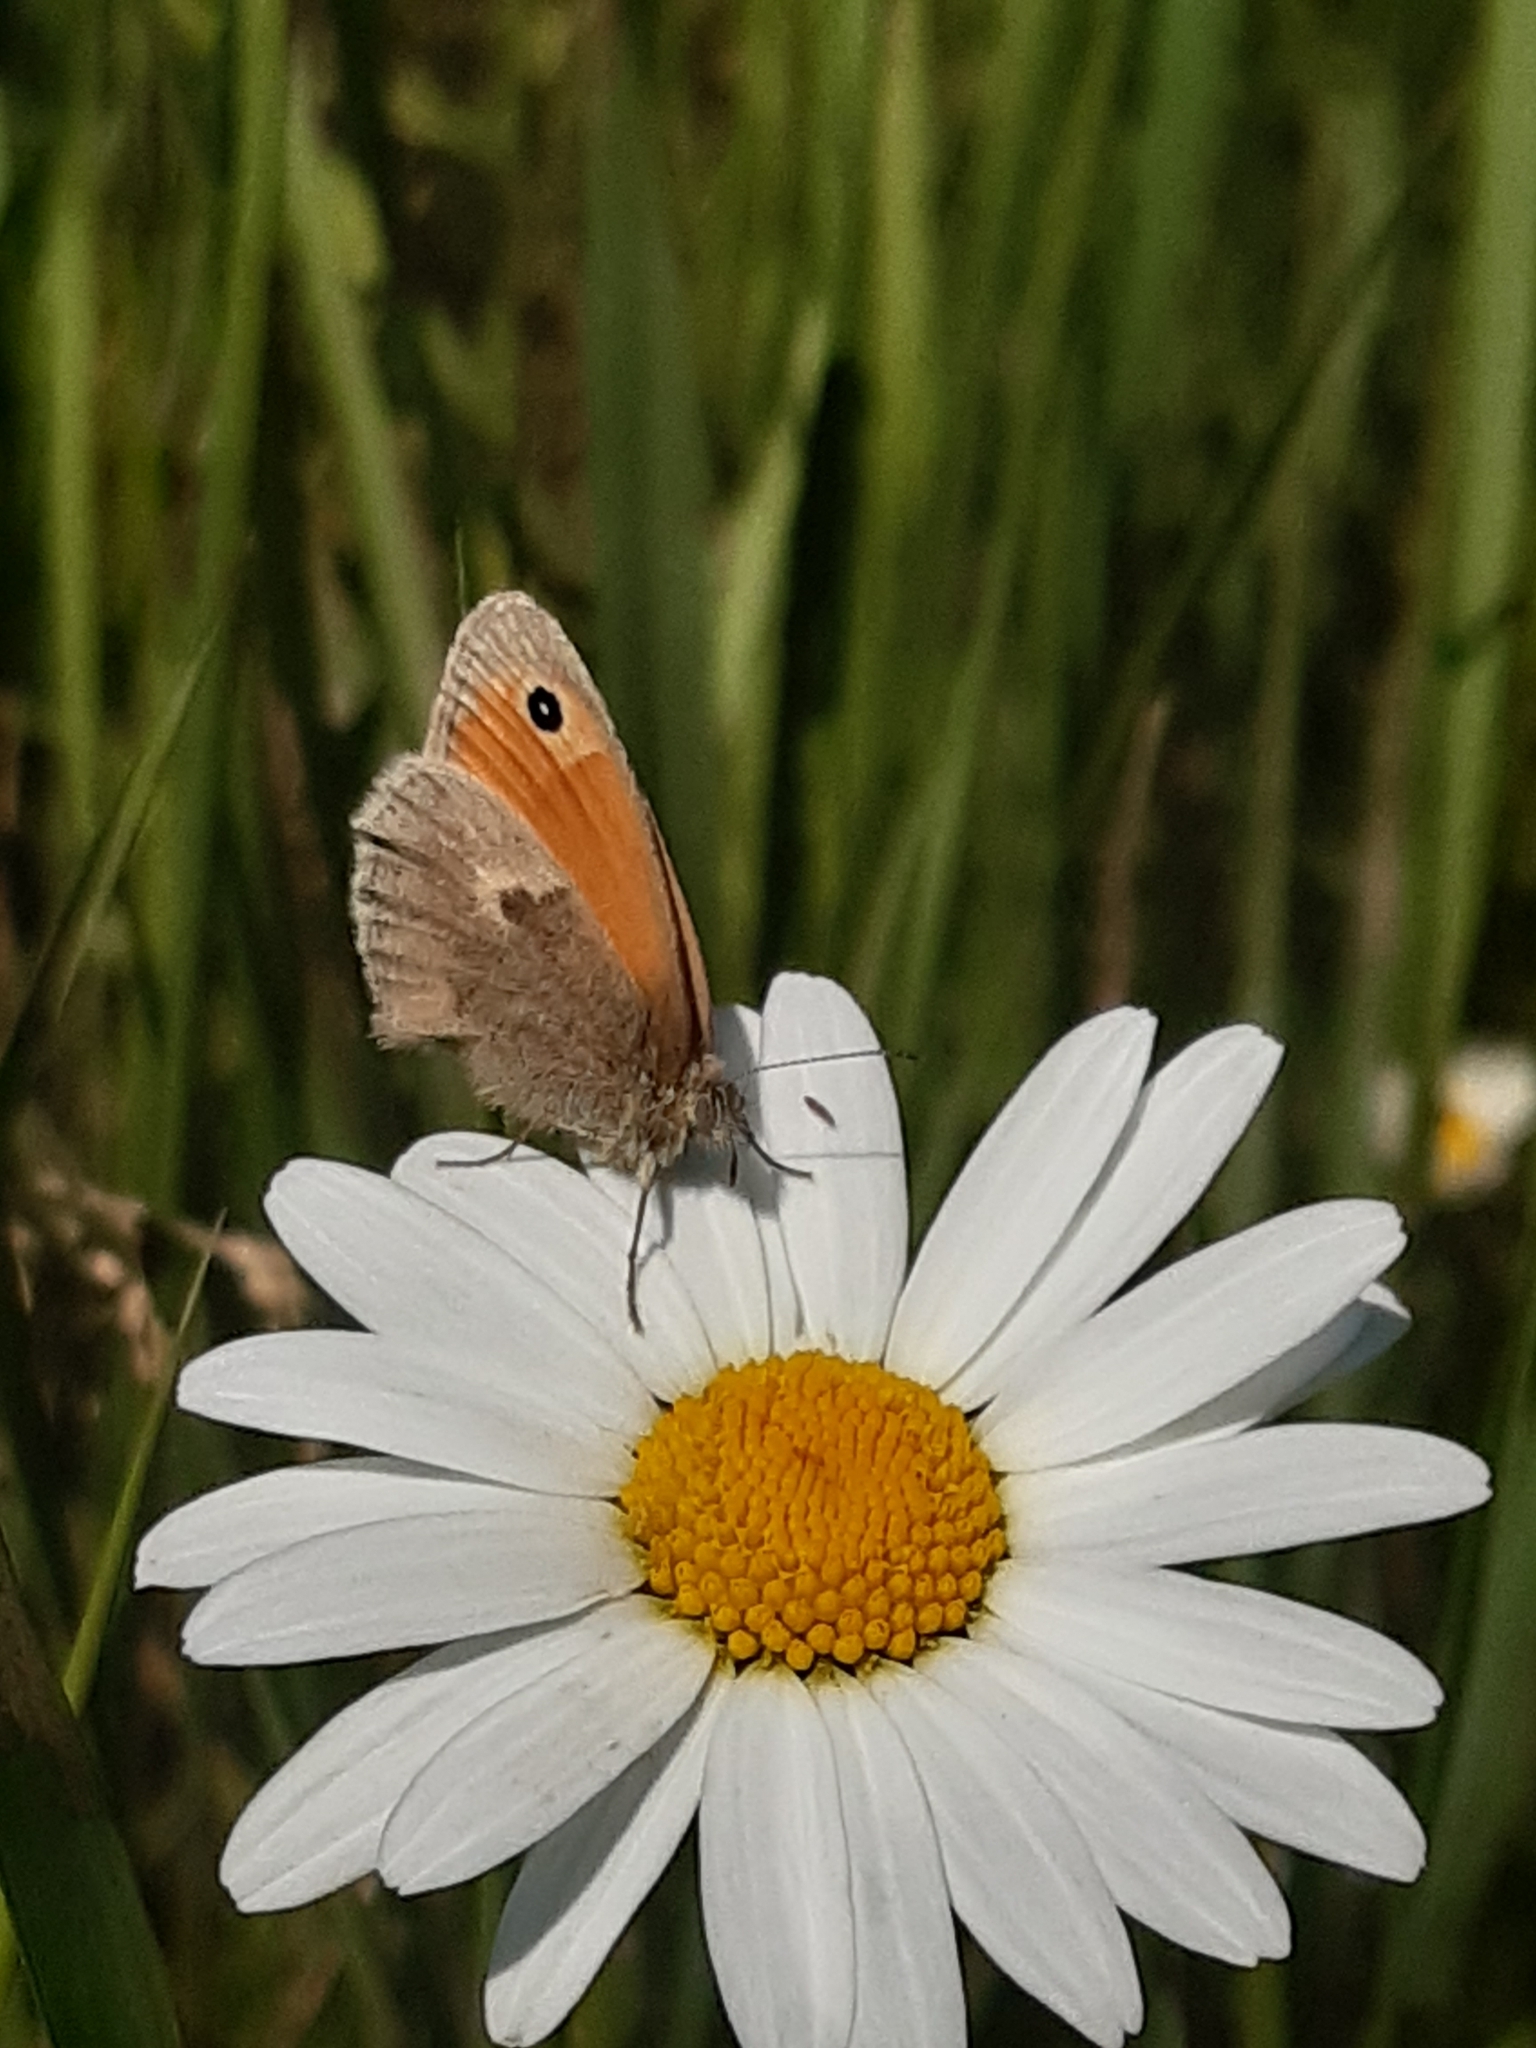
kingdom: Animalia
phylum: Arthropoda
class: Insecta
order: Lepidoptera
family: Nymphalidae
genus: Coenonympha
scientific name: Coenonympha pamphilus
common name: Small heath
